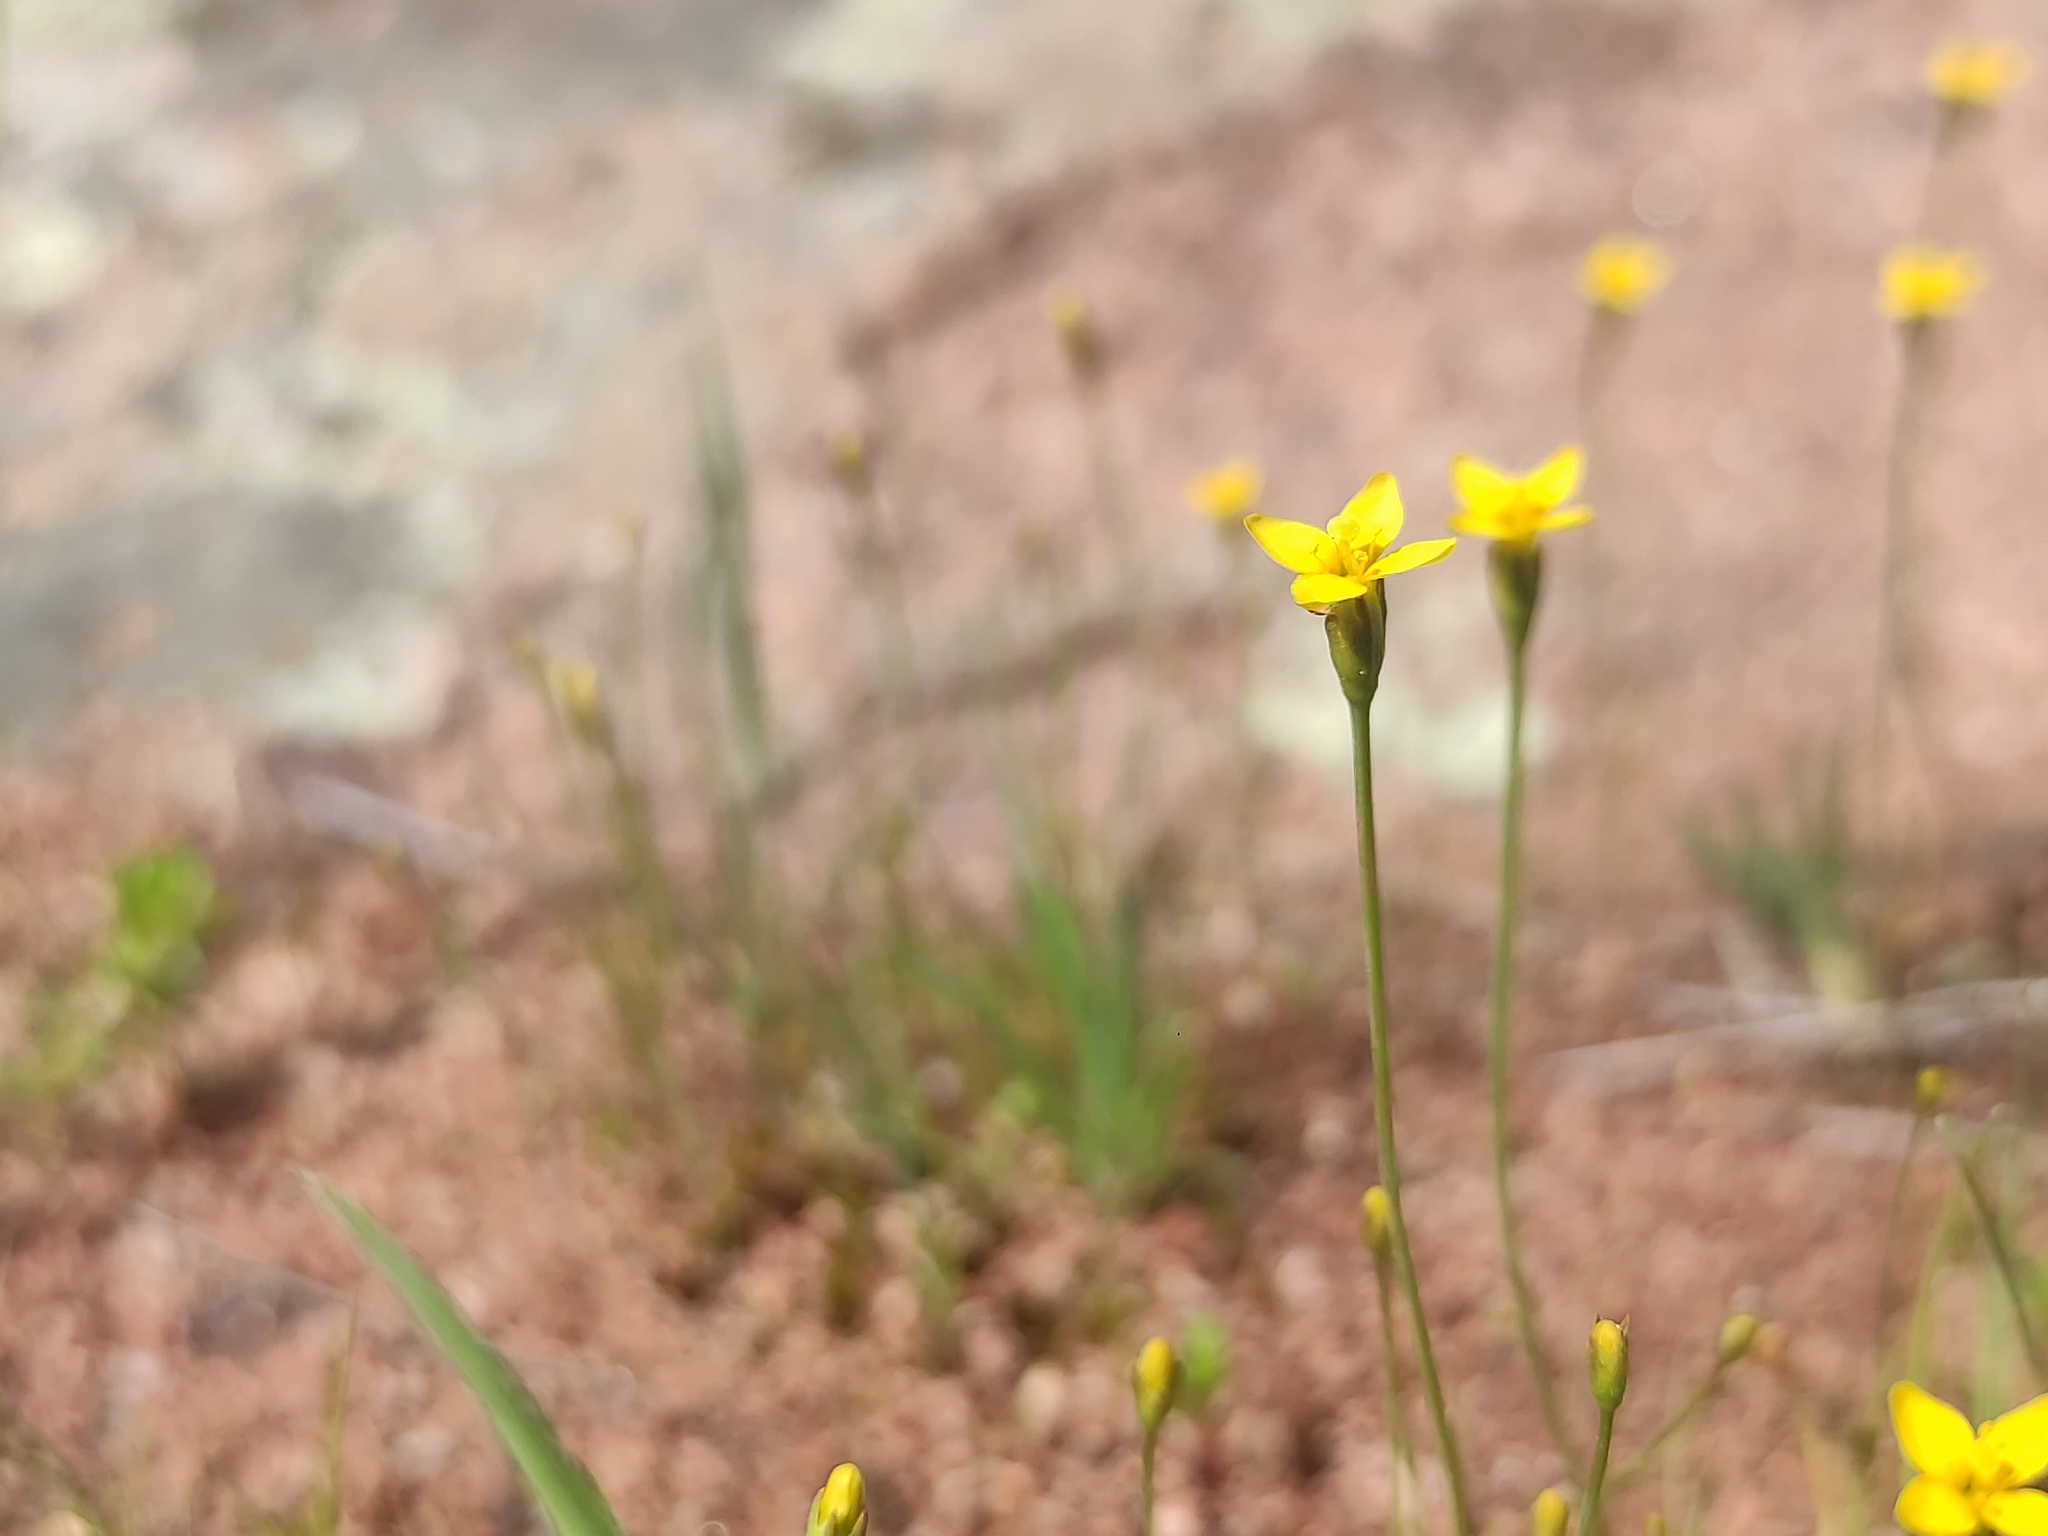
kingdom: Plantae
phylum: Tracheophyta
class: Magnoliopsida
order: Gentianales
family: Gentianaceae
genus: Cicendia
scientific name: Cicendia filiformis
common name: Yellow centaury
